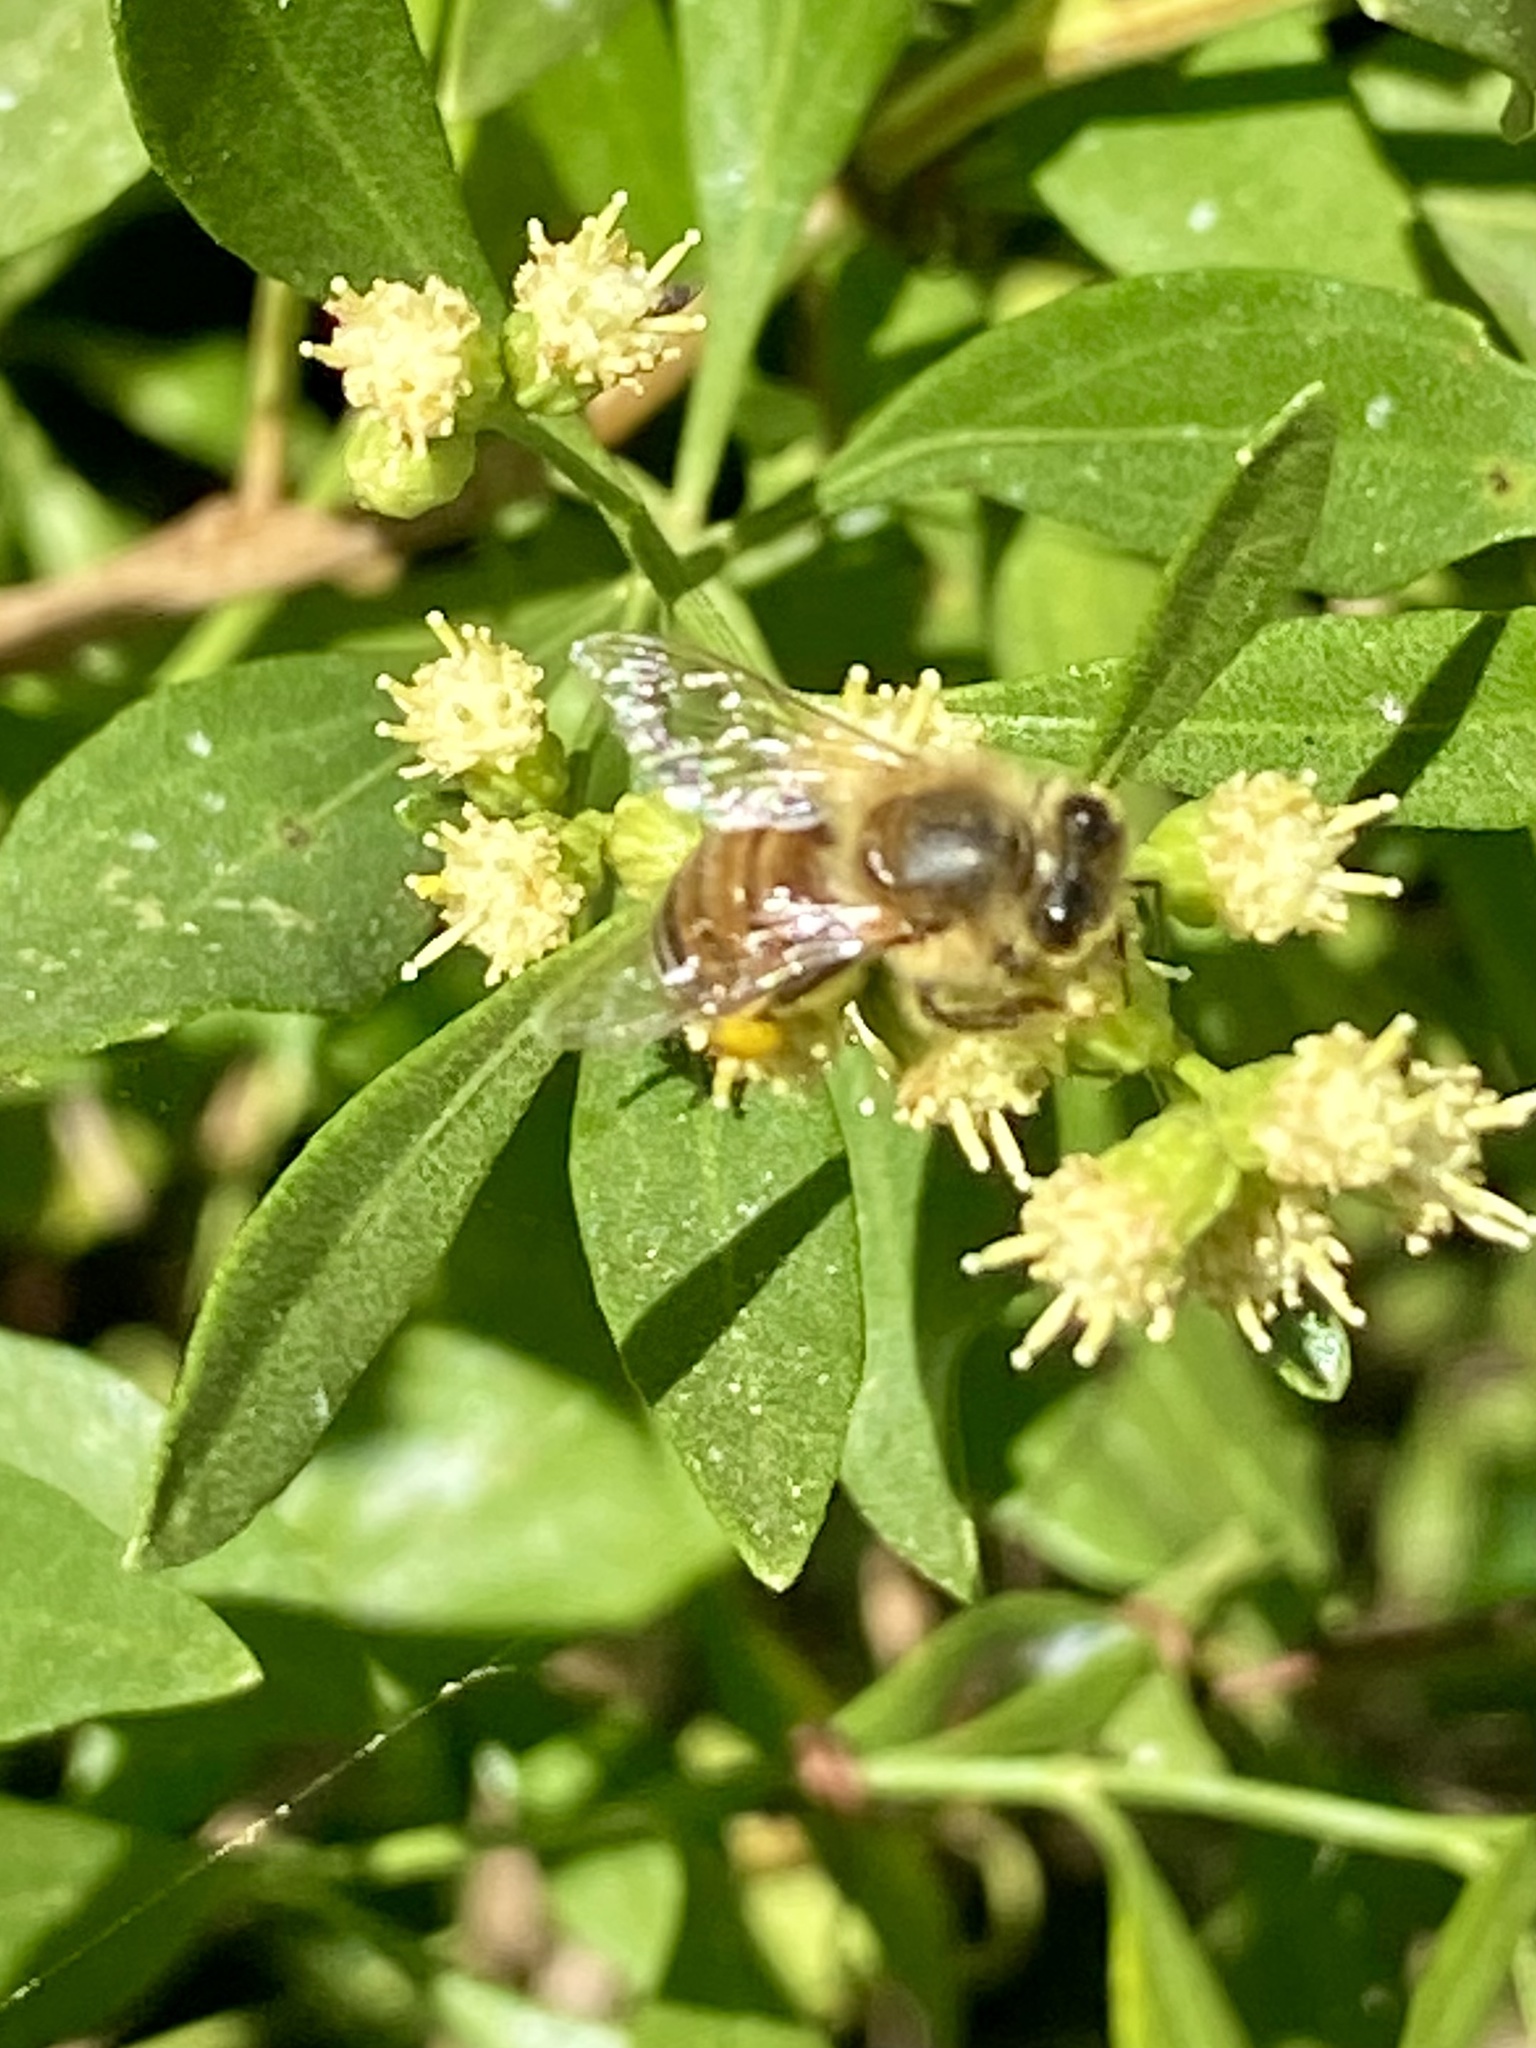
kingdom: Animalia
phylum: Arthropoda
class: Insecta
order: Hymenoptera
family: Apidae
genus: Apis
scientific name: Apis mellifera
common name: Honey bee
